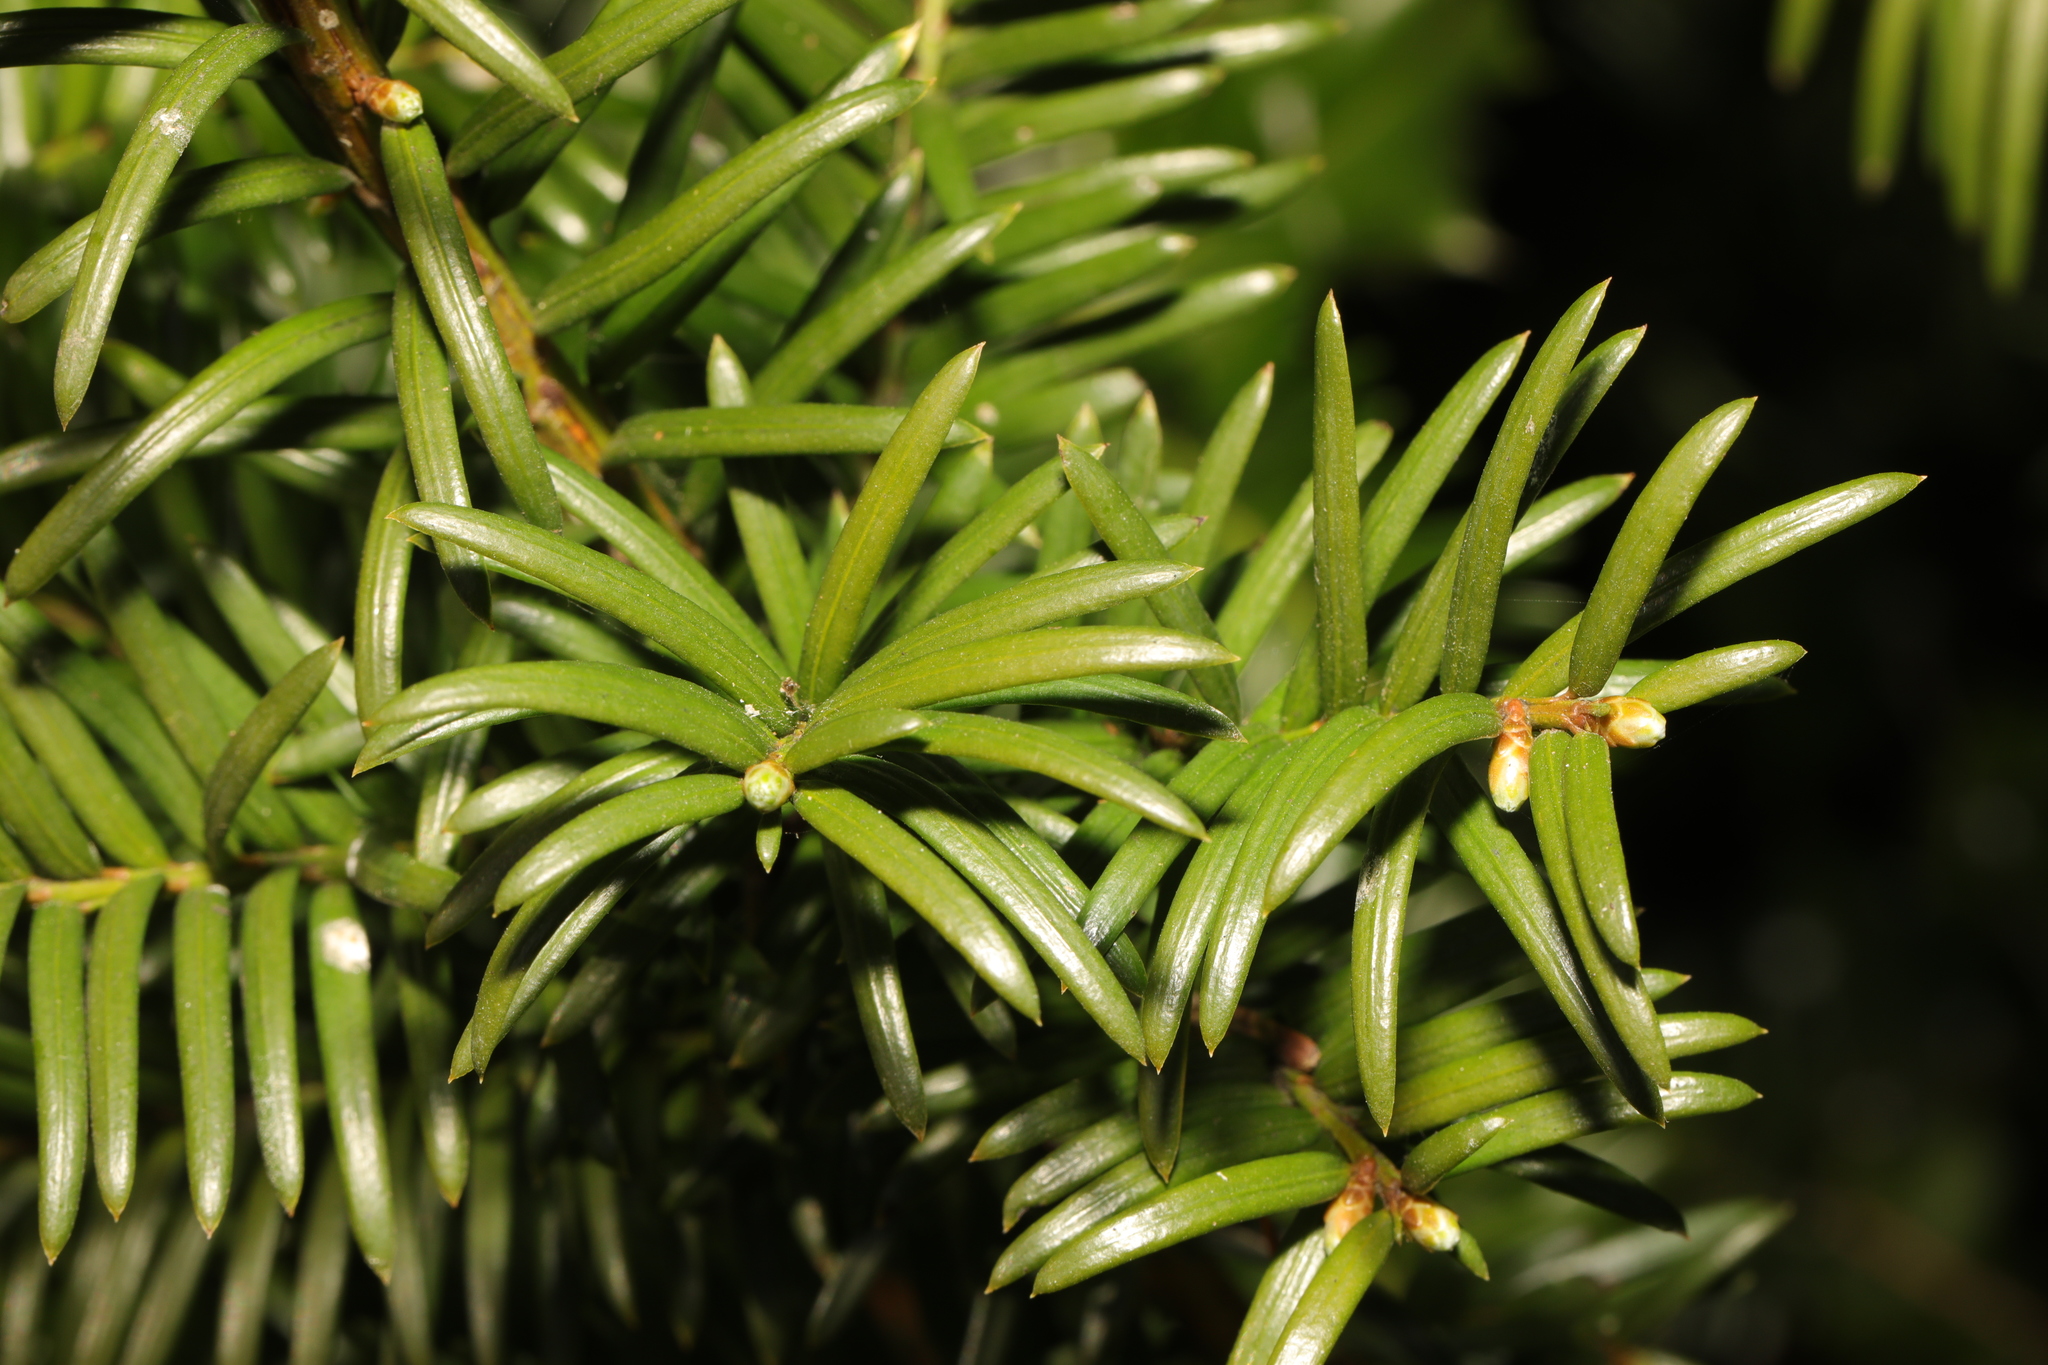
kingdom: Plantae
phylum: Tracheophyta
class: Pinopsida
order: Pinales
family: Taxaceae
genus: Taxus
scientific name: Taxus baccata
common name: Yew
